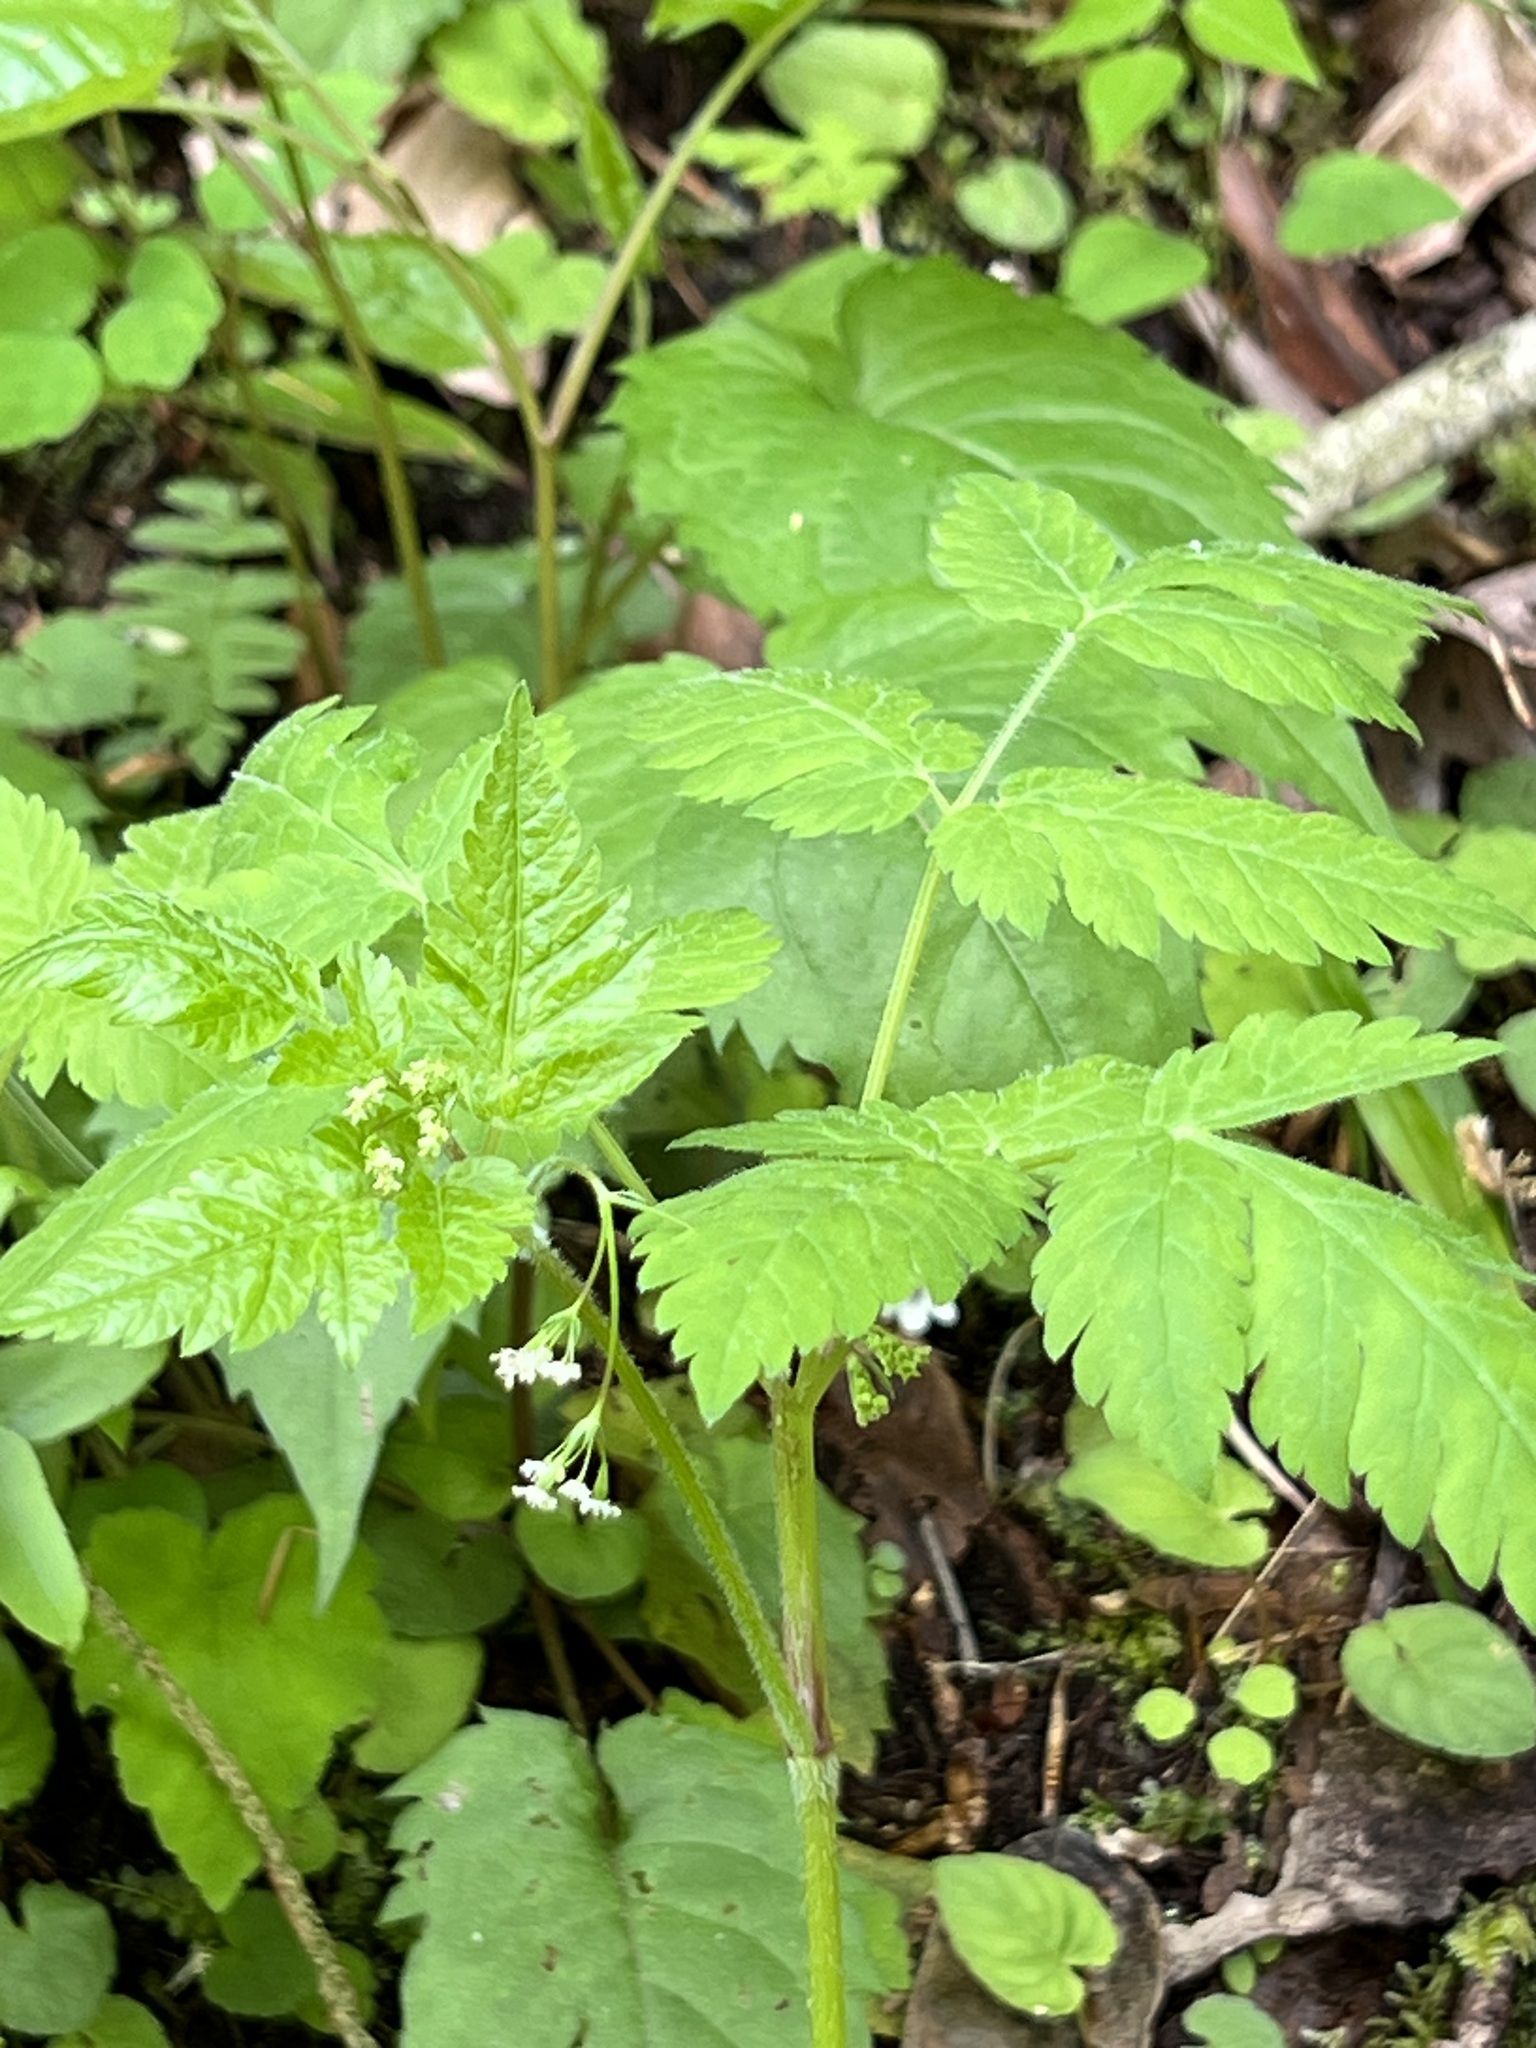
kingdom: Plantae
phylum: Tracheophyta
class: Magnoliopsida
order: Apiales
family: Apiaceae
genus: Osmorhiza
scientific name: Osmorhiza claytonii
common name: Hairy sweet cicely
